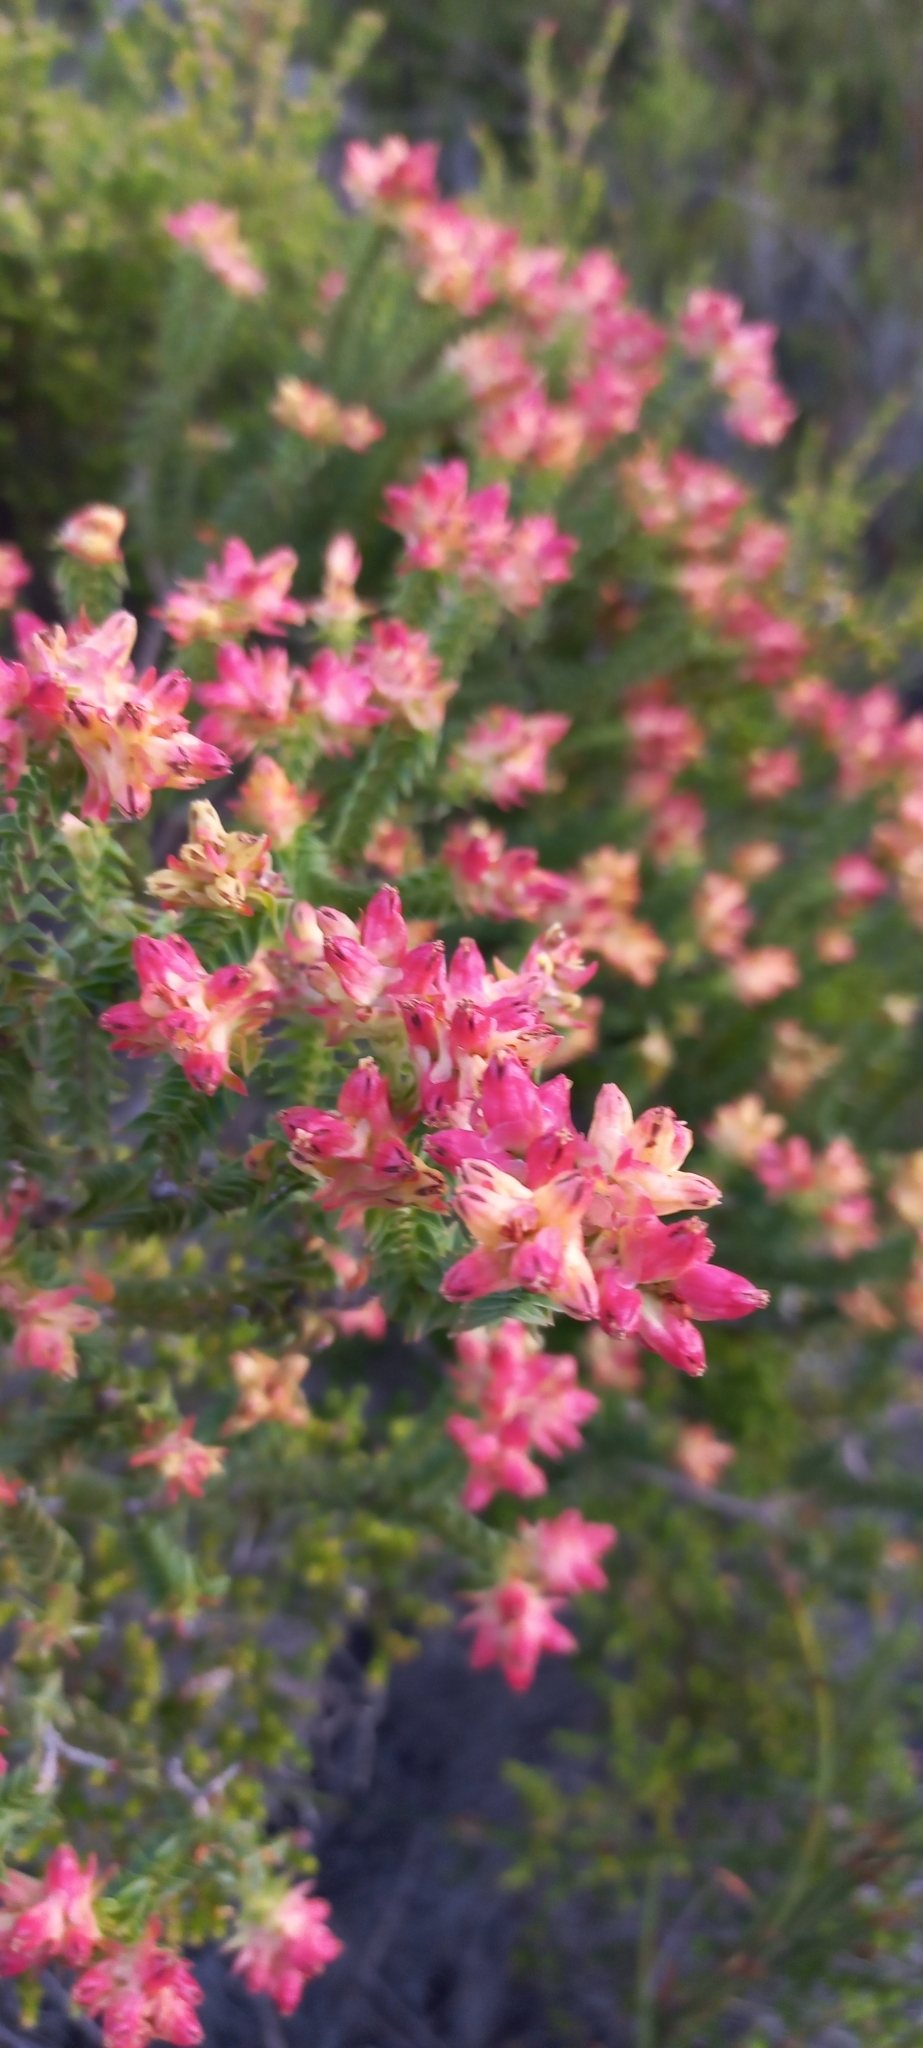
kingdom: Plantae
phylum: Tracheophyta
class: Magnoliopsida
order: Myrtales
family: Penaeaceae
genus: Penaea
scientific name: Penaea mucronata
